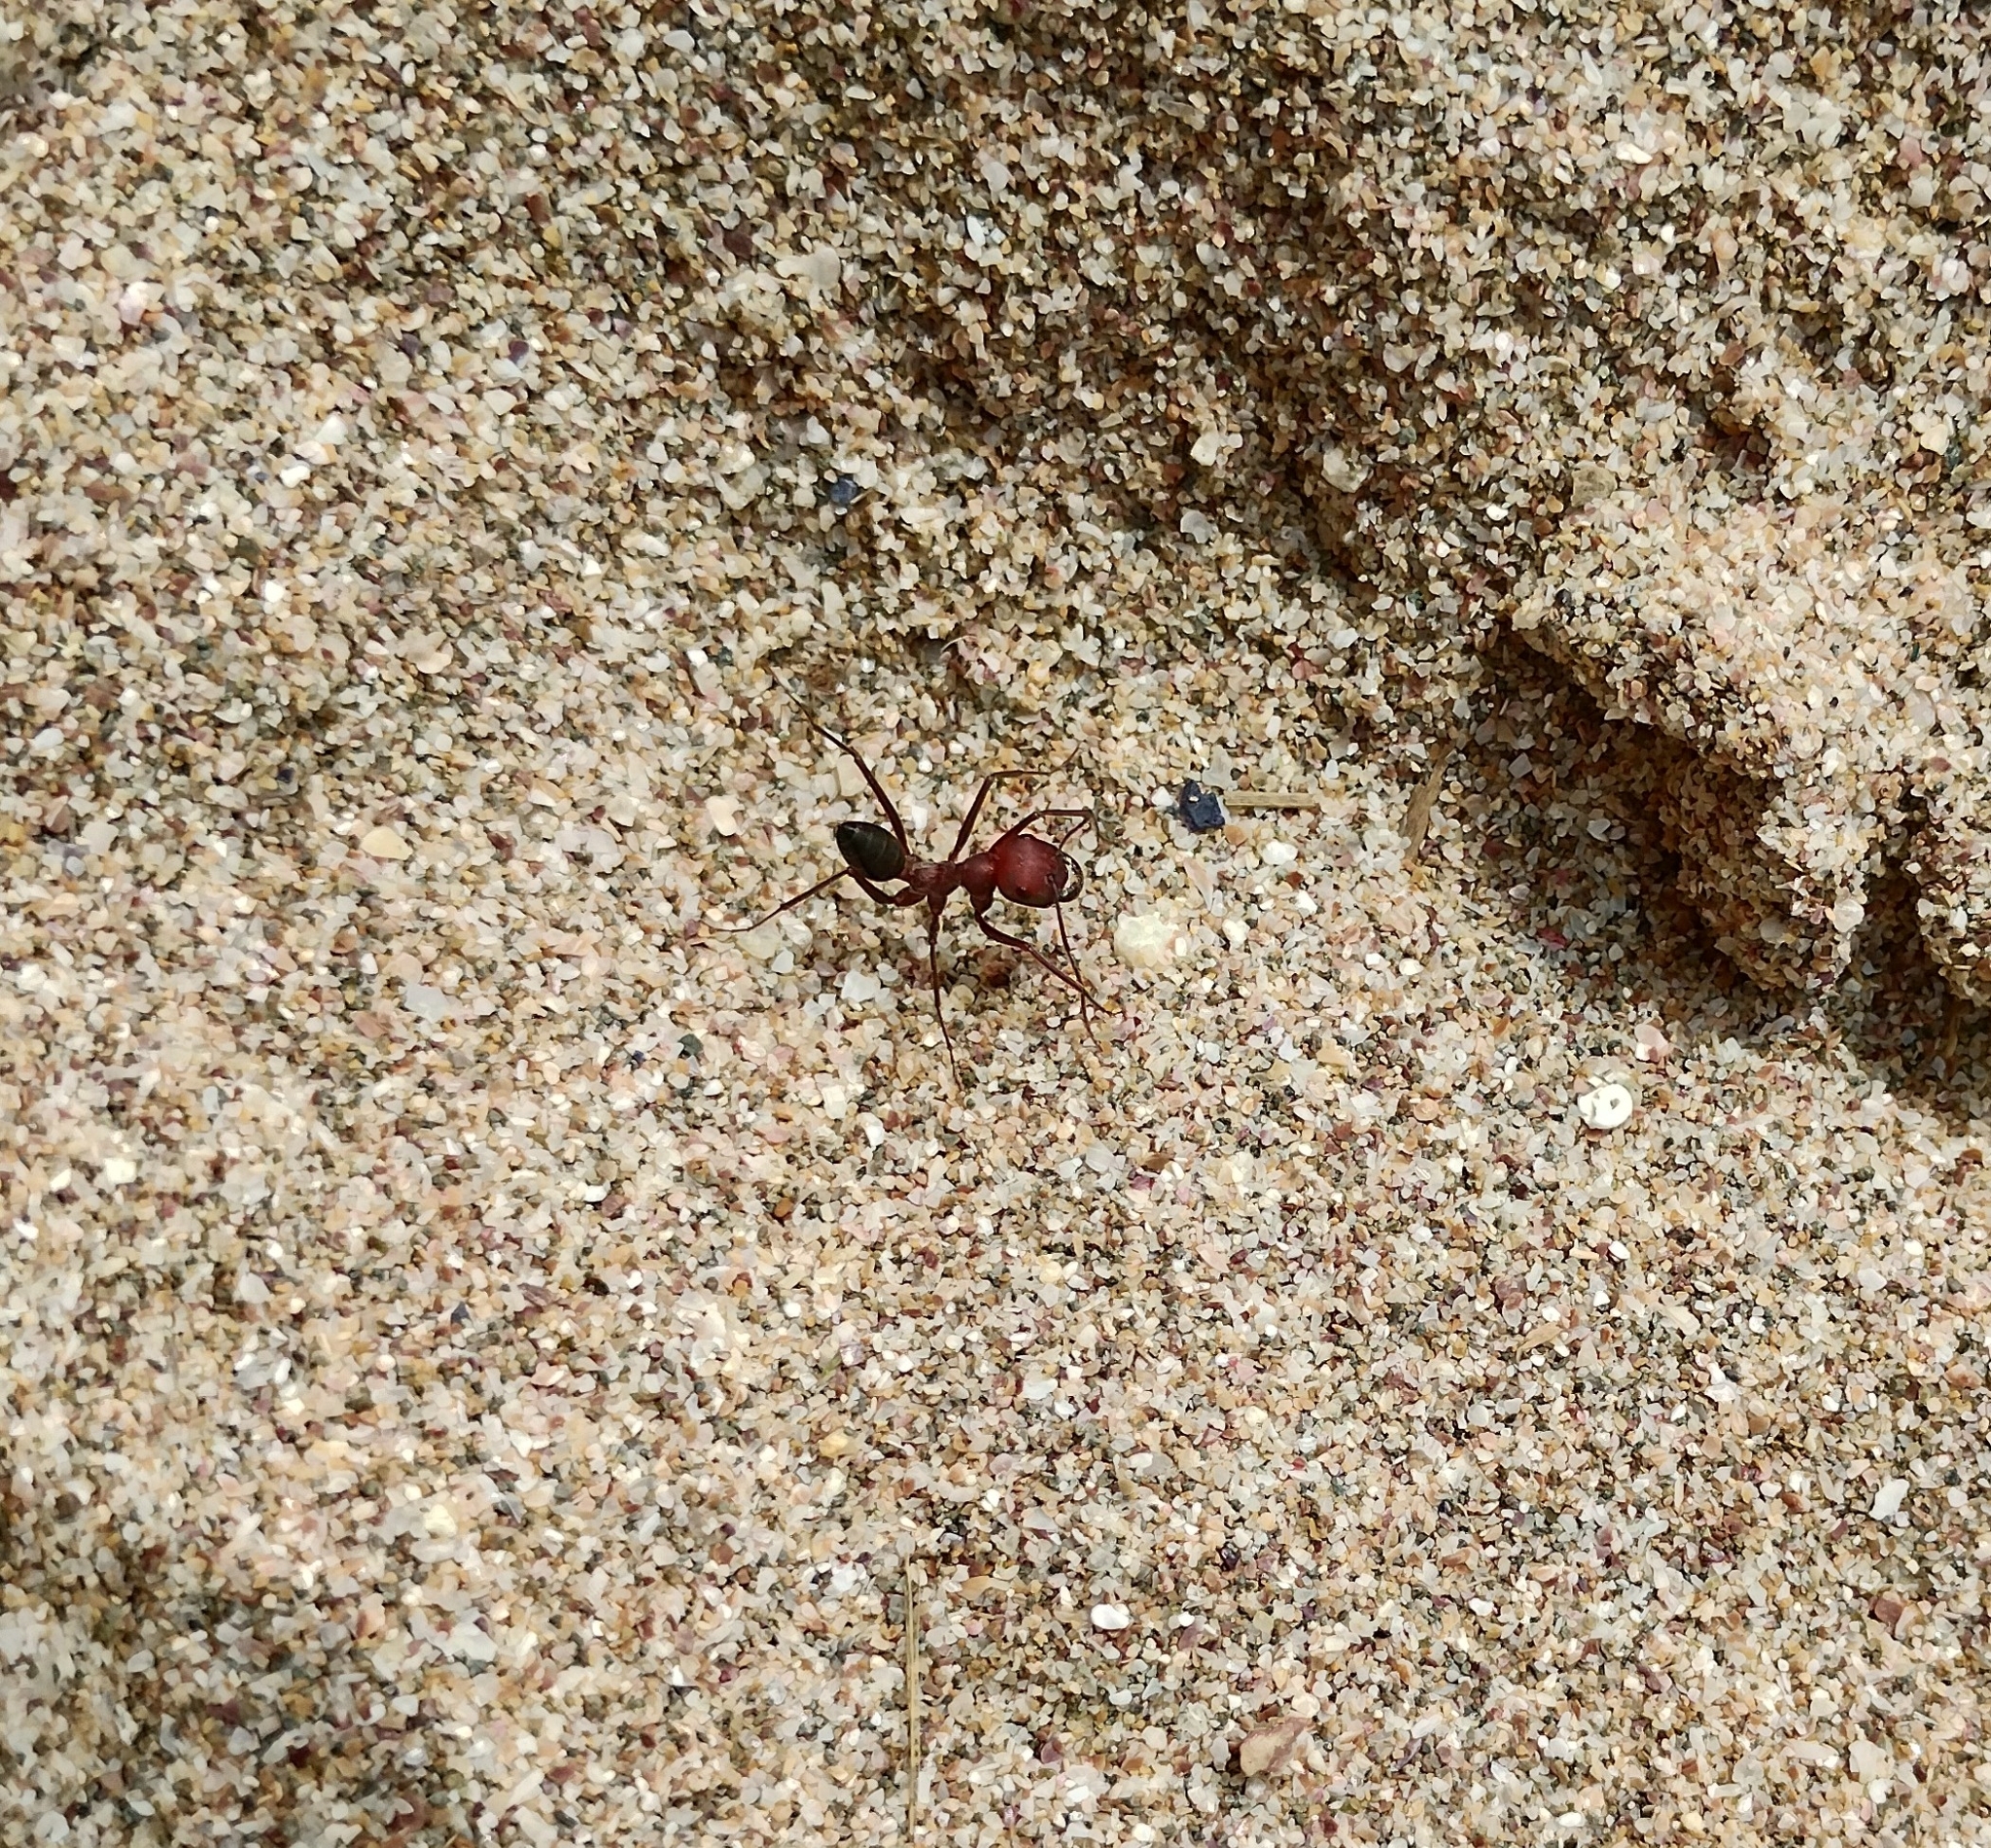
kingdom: Animalia
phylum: Arthropoda
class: Insecta
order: Hymenoptera
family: Formicidae
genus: Cataglyphis
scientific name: Cataglyphis nodus
